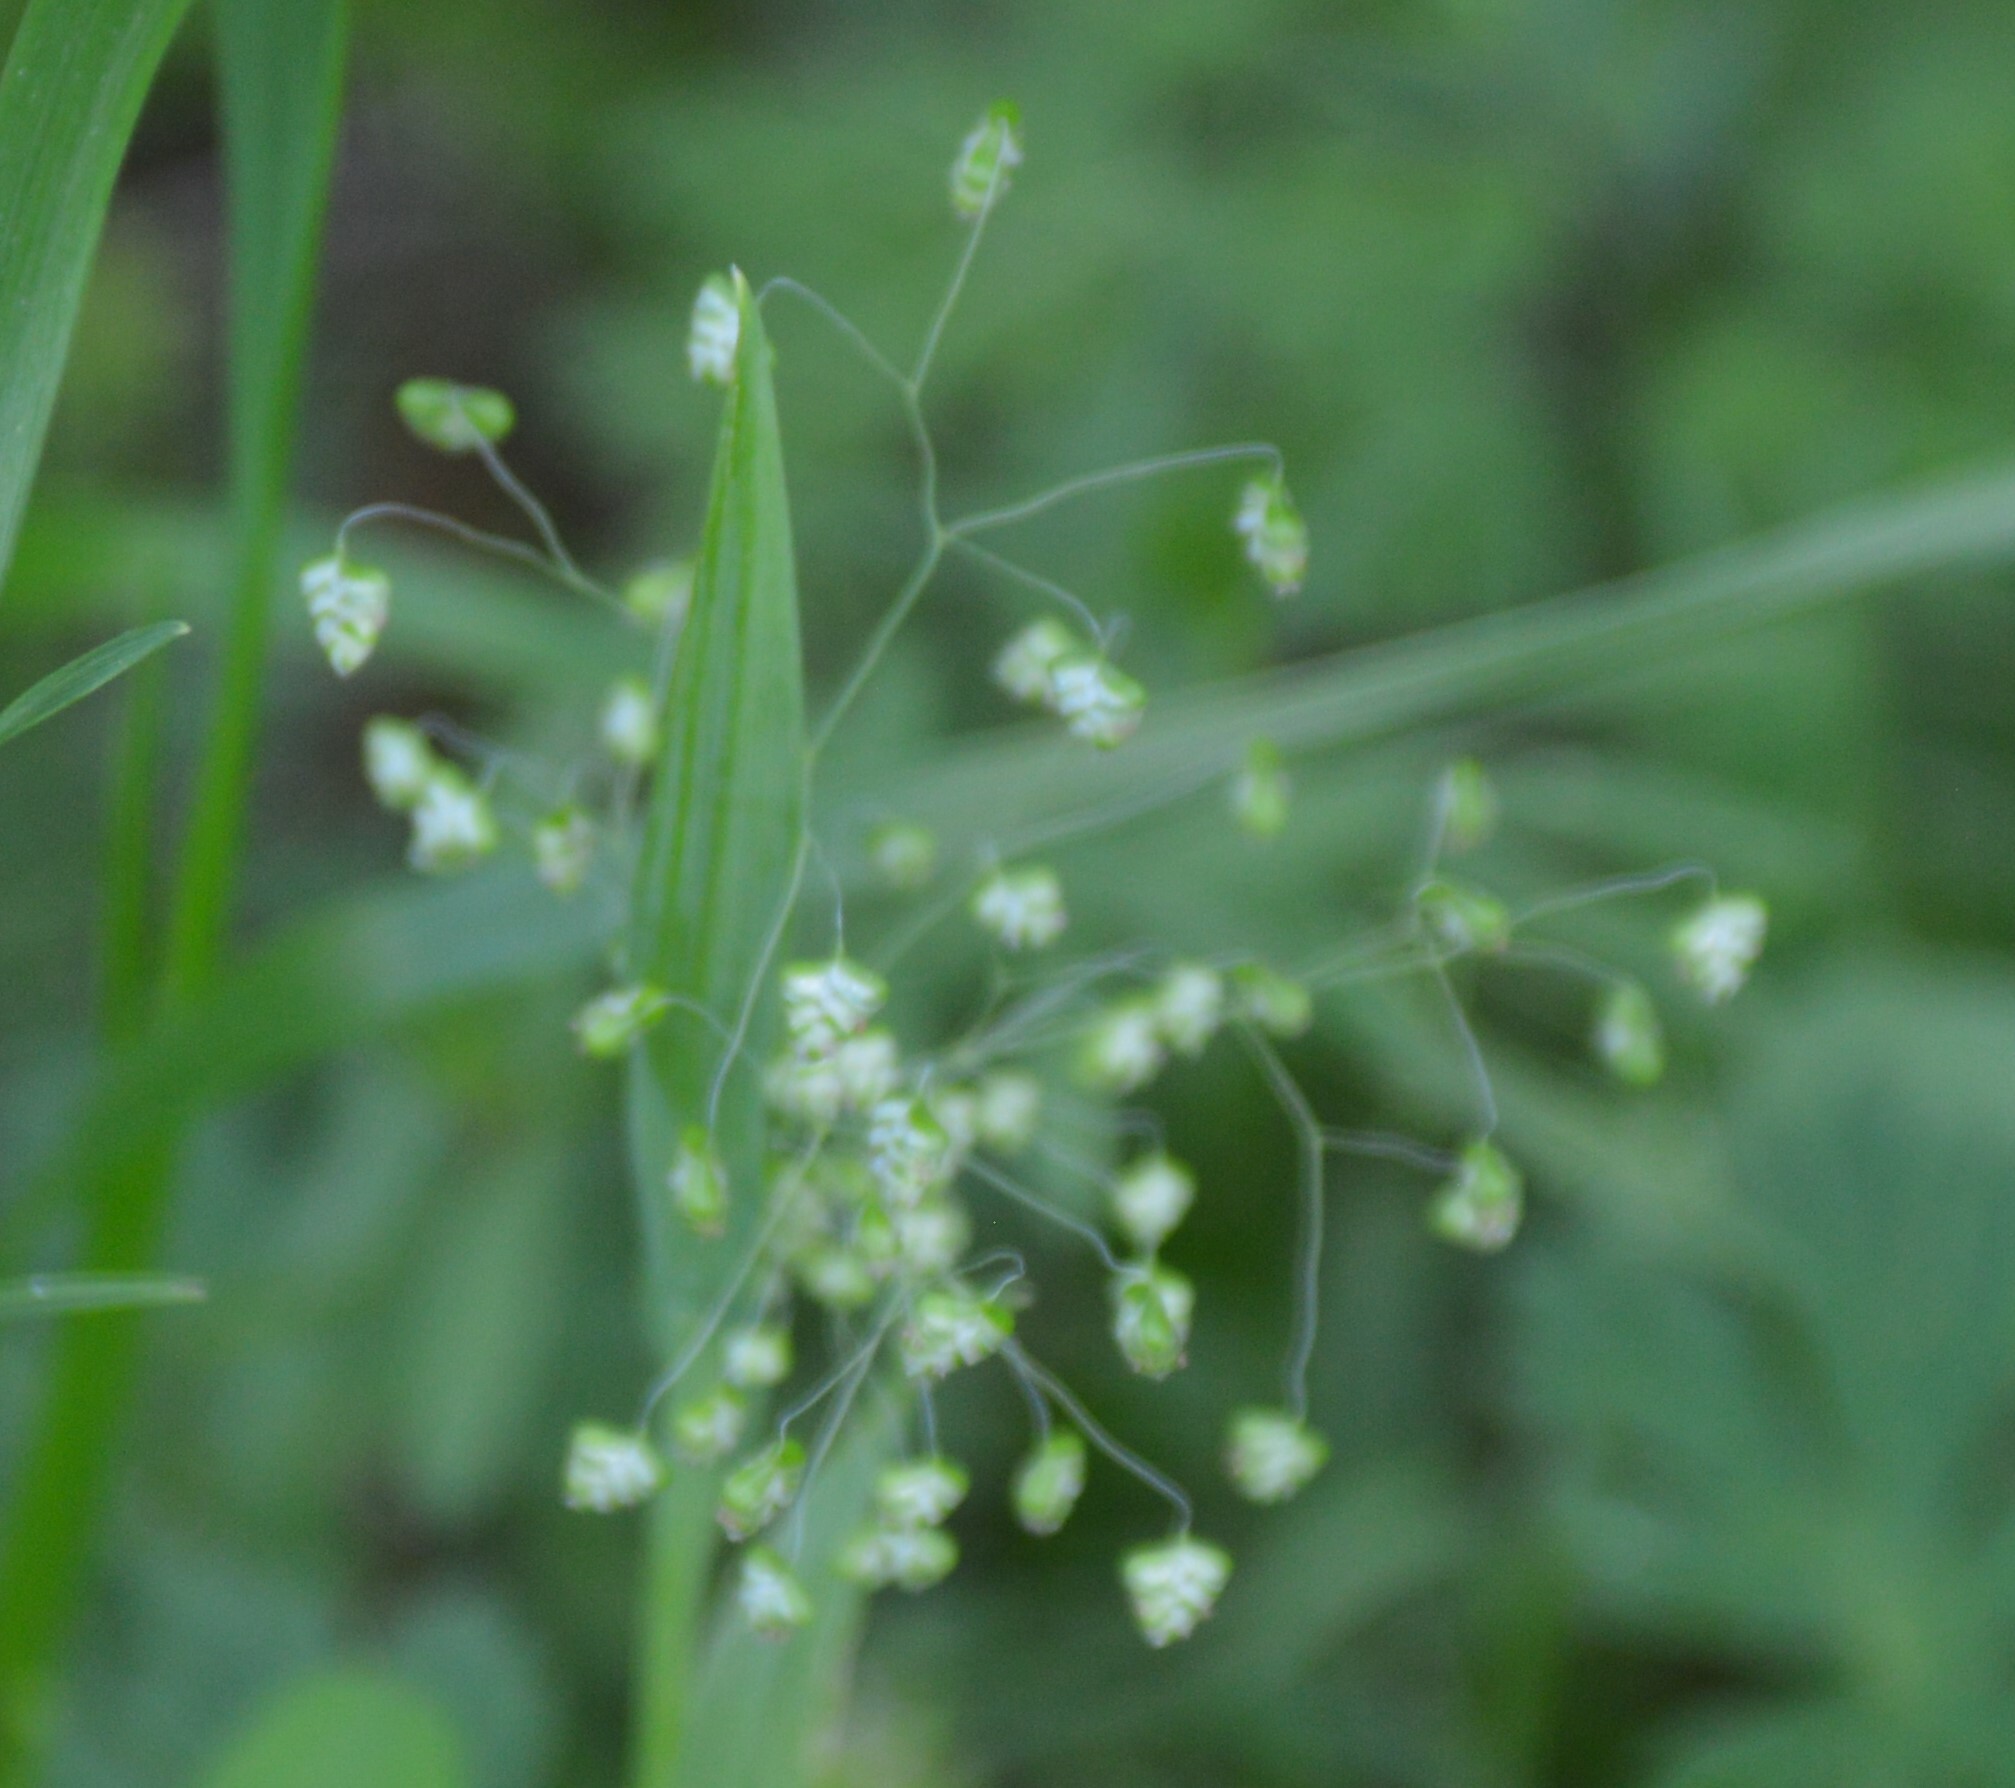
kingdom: Plantae
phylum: Tracheophyta
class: Liliopsida
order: Poales
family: Poaceae
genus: Briza
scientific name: Briza minor
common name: Lesser quaking-grass
